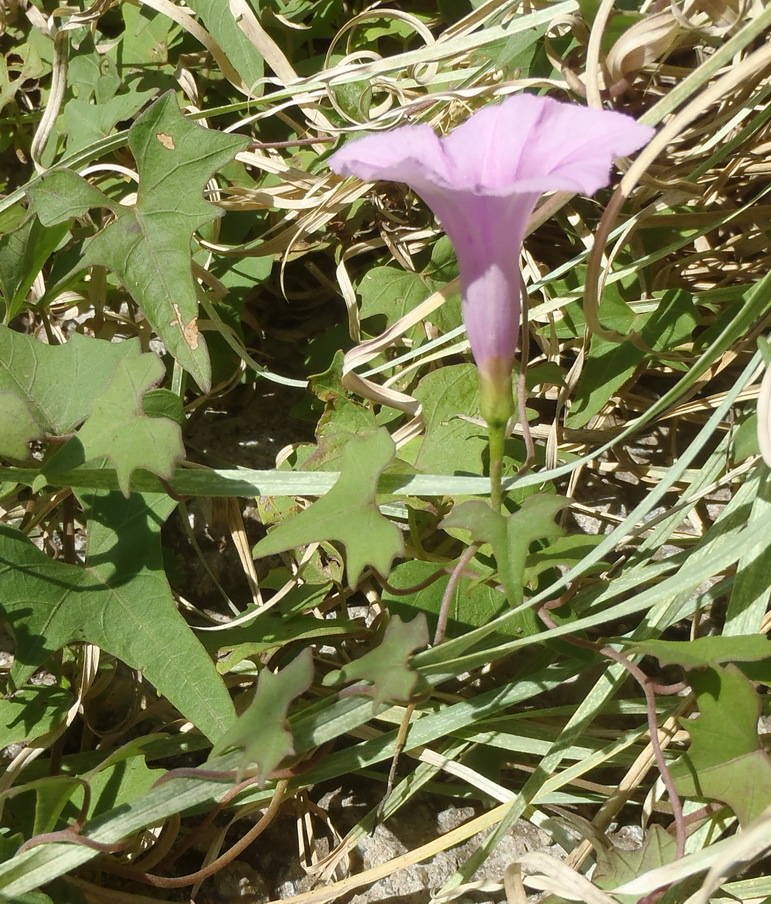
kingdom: Plantae
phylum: Tracheophyta
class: Magnoliopsida
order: Solanales
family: Convolvulaceae
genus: Ipomoea
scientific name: Ipomoea papilio
